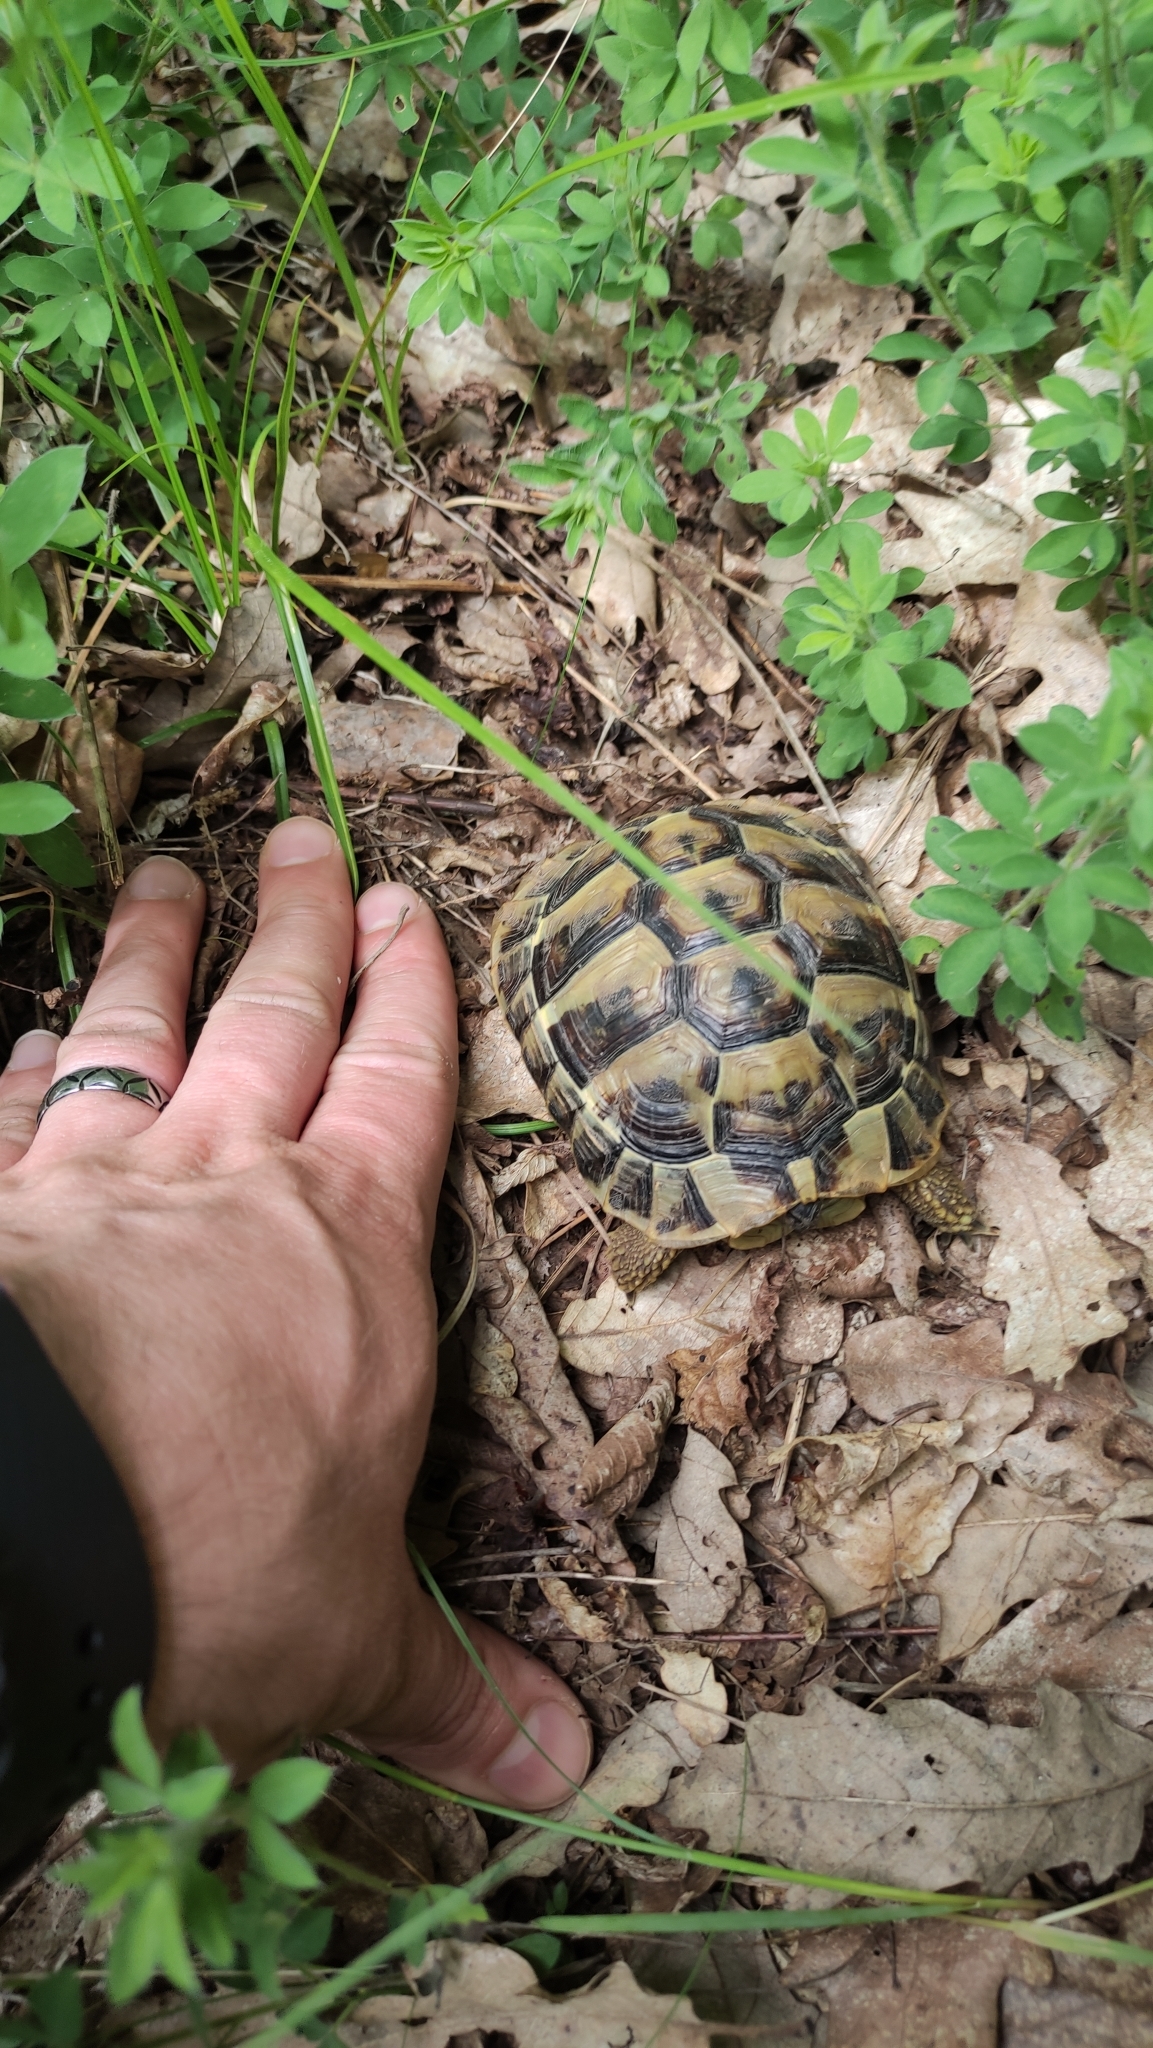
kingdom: Animalia
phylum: Chordata
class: Testudines
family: Testudinidae
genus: Testudo
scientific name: Testudo hermanni
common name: Hermann's tortoise
